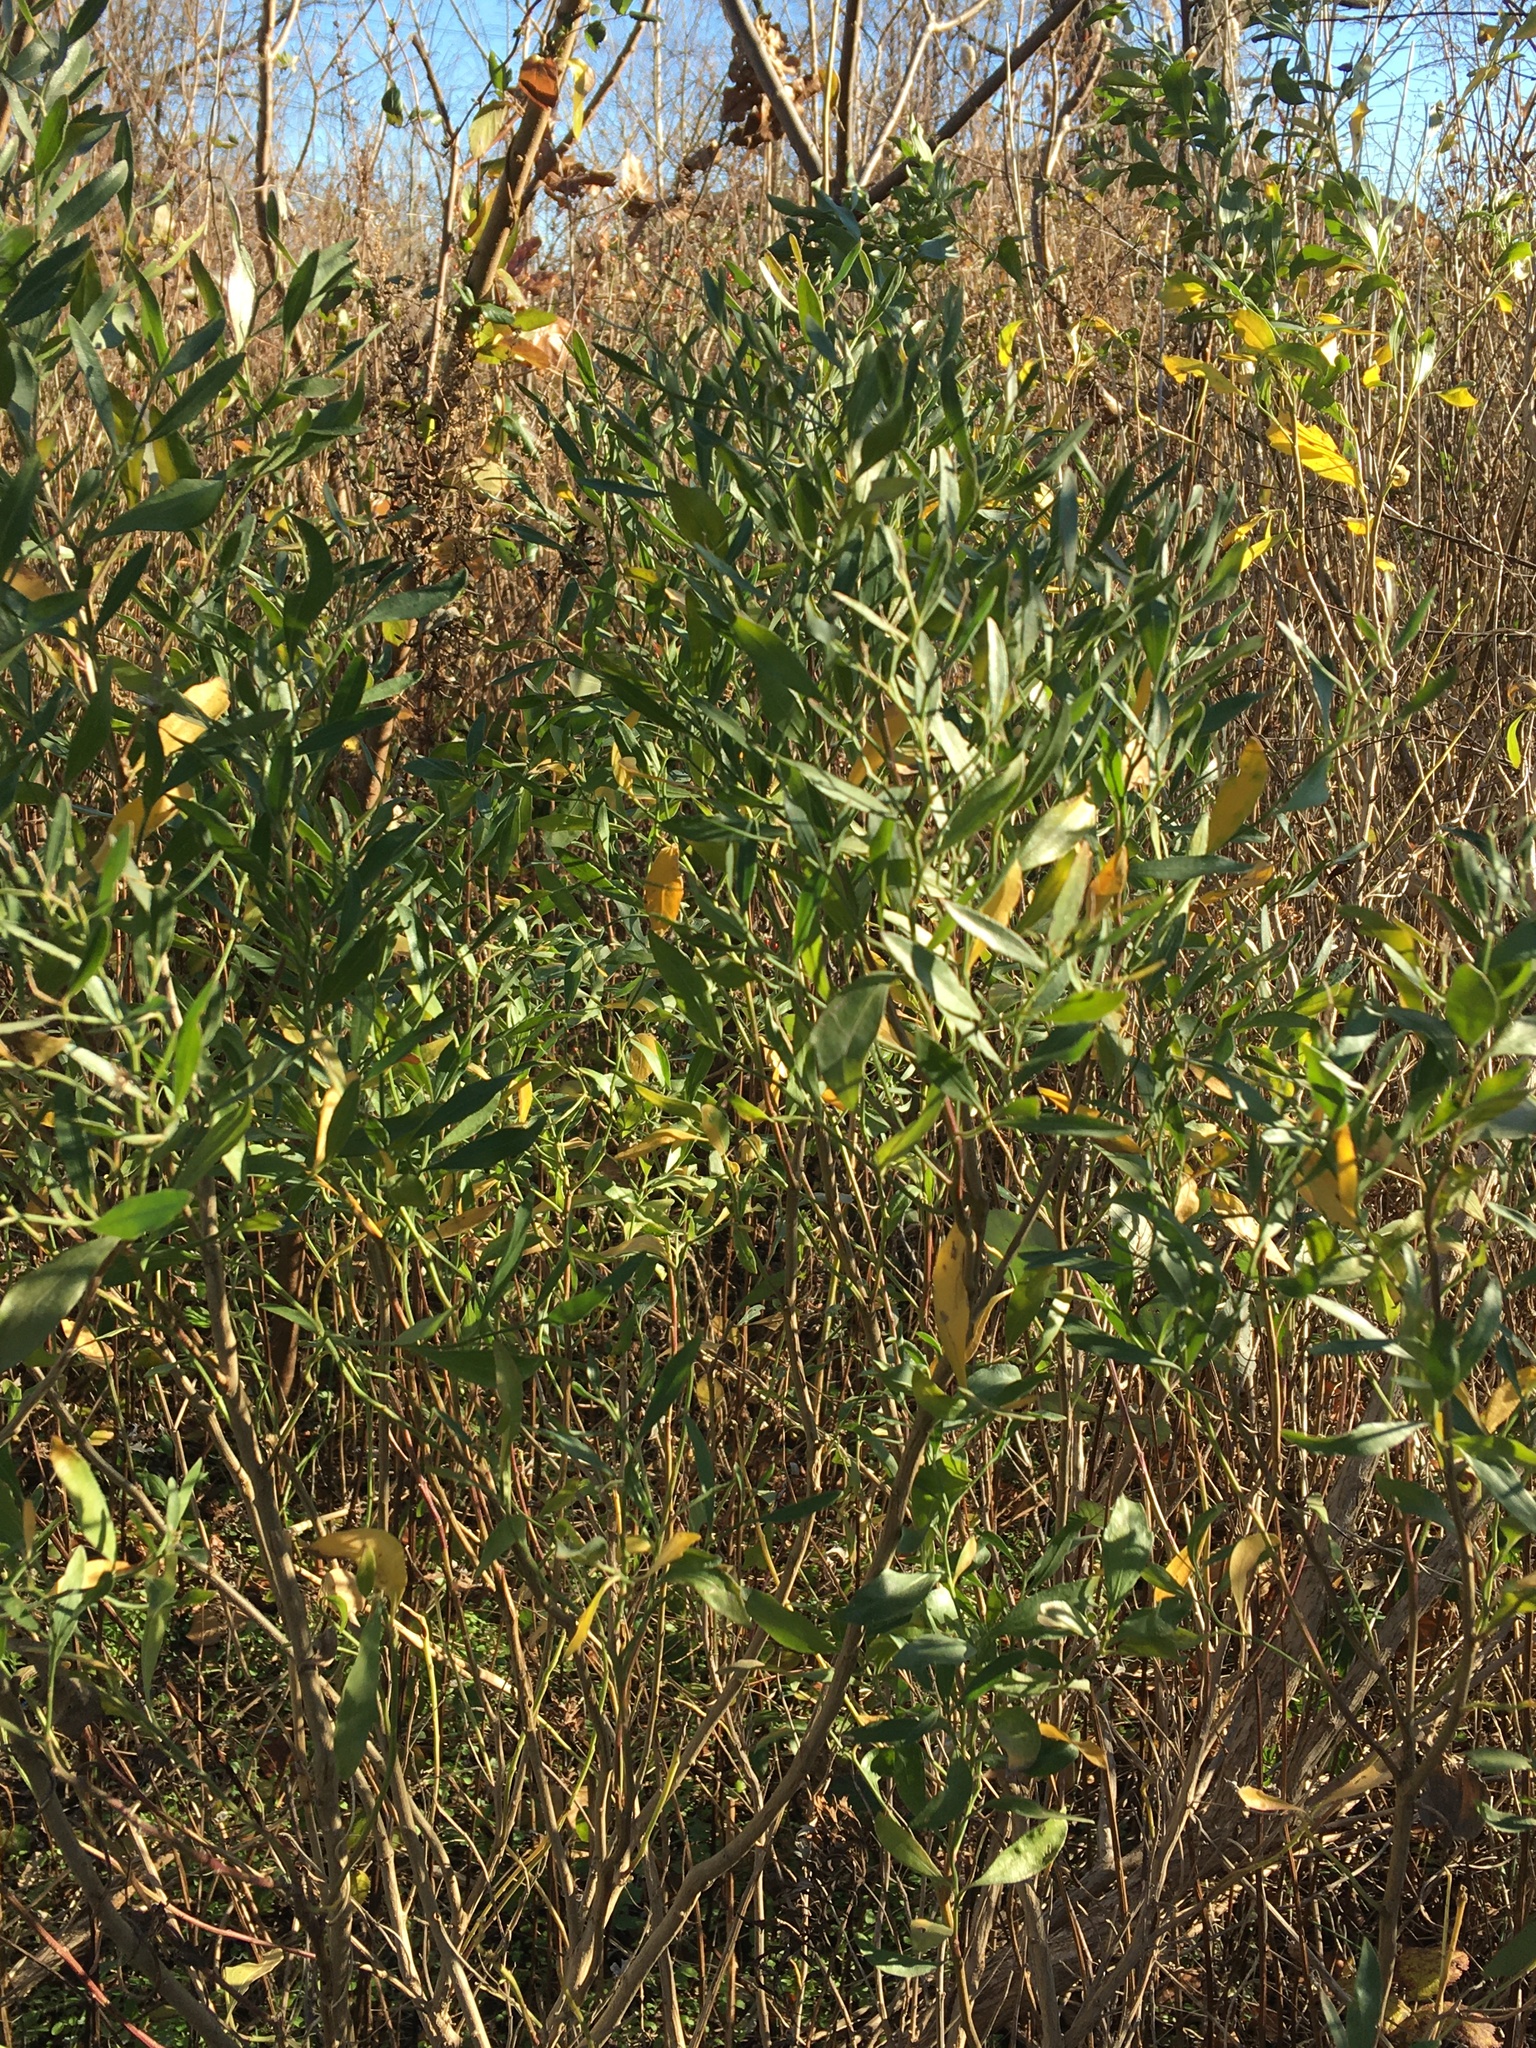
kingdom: Plantae
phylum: Tracheophyta
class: Magnoliopsida
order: Asterales
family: Asteraceae
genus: Baccharis
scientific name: Baccharis halimifolia
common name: Eastern baccharis
